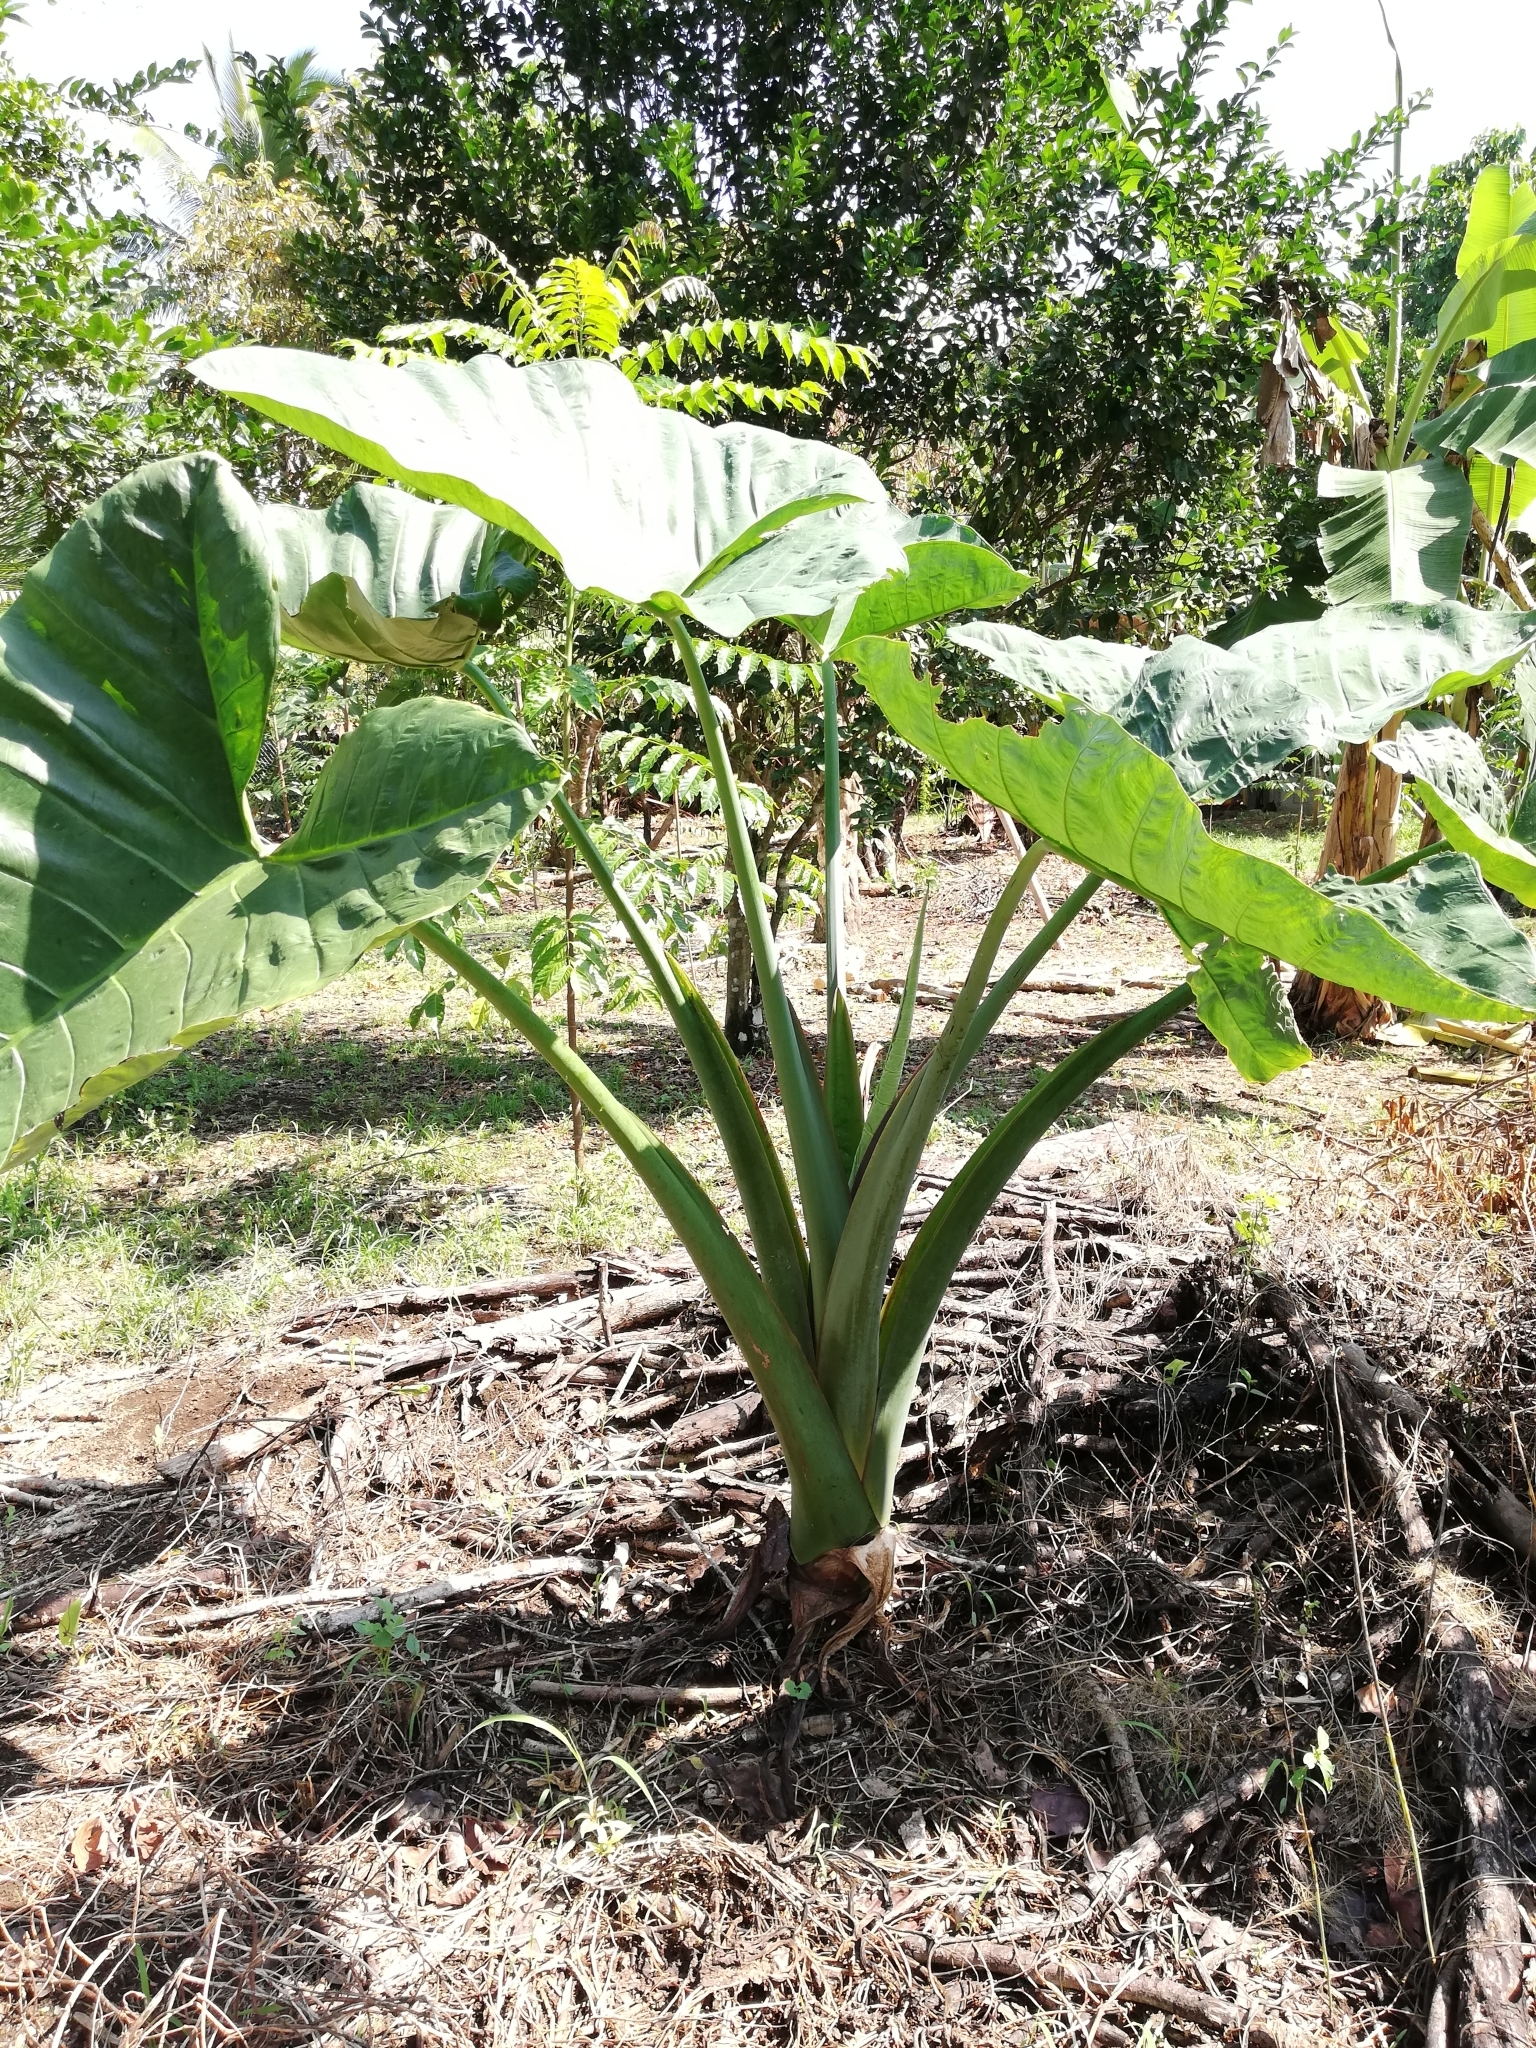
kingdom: Plantae
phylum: Tracheophyta
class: Liliopsida
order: Alismatales
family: Araceae
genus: Xanthosoma
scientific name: Xanthosoma sagittifolium
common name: Arrowleaf elephant's ear
